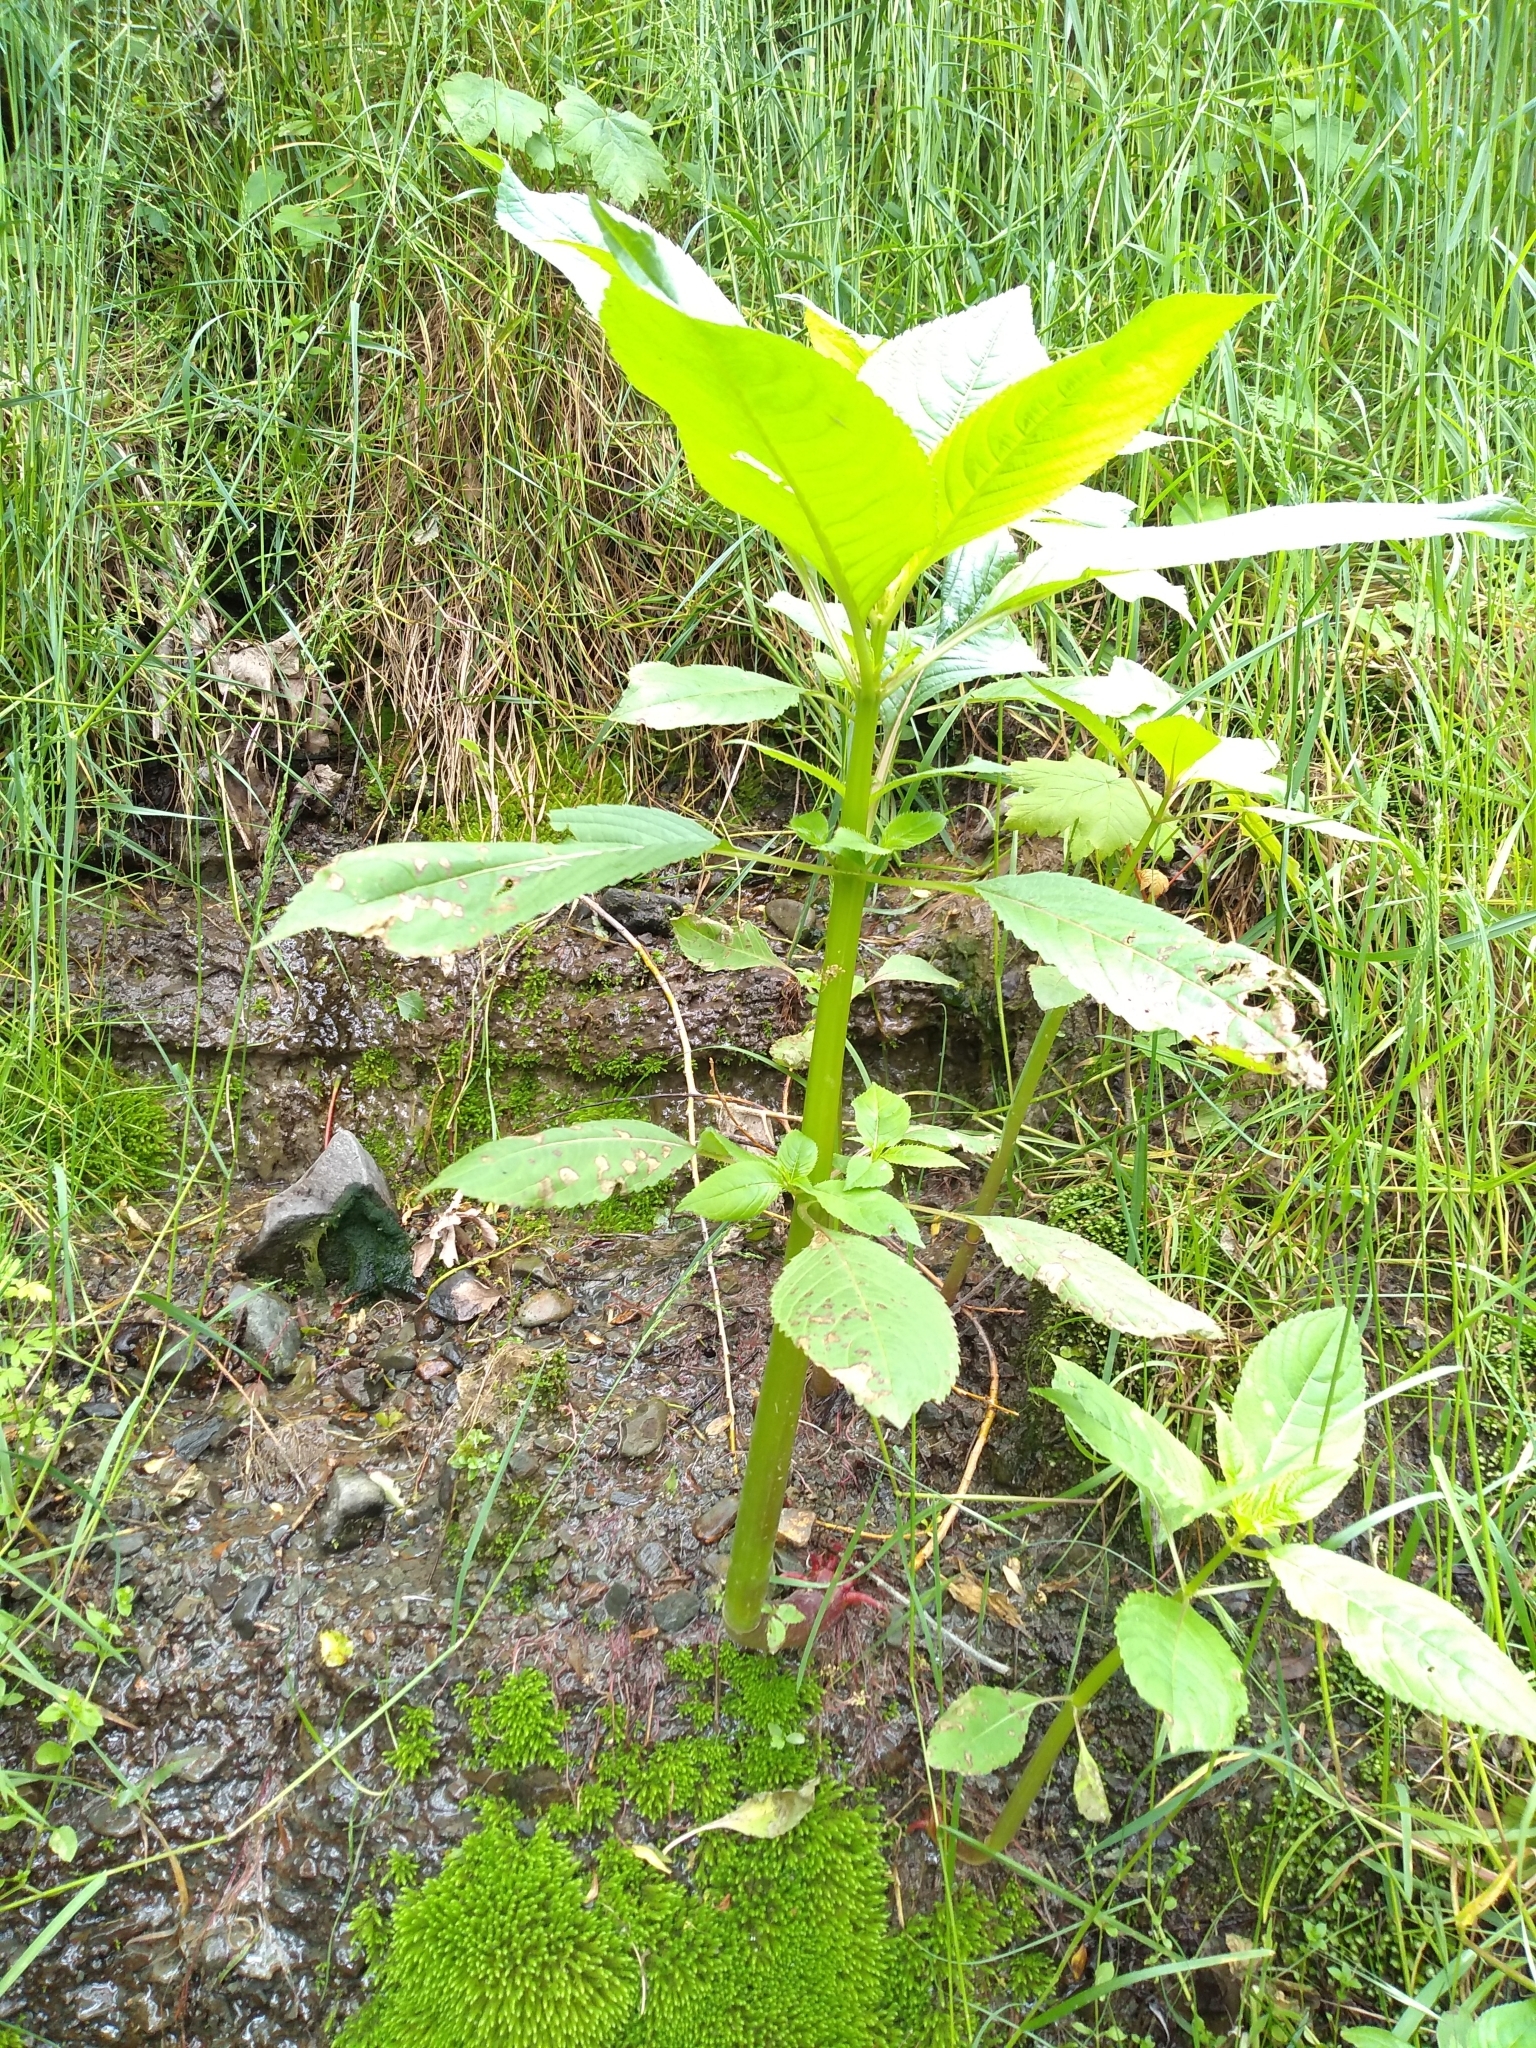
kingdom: Plantae
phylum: Tracheophyta
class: Magnoliopsida
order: Ericales
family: Balsaminaceae
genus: Impatiens
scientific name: Impatiens glandulifera
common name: Himalayan balsam
